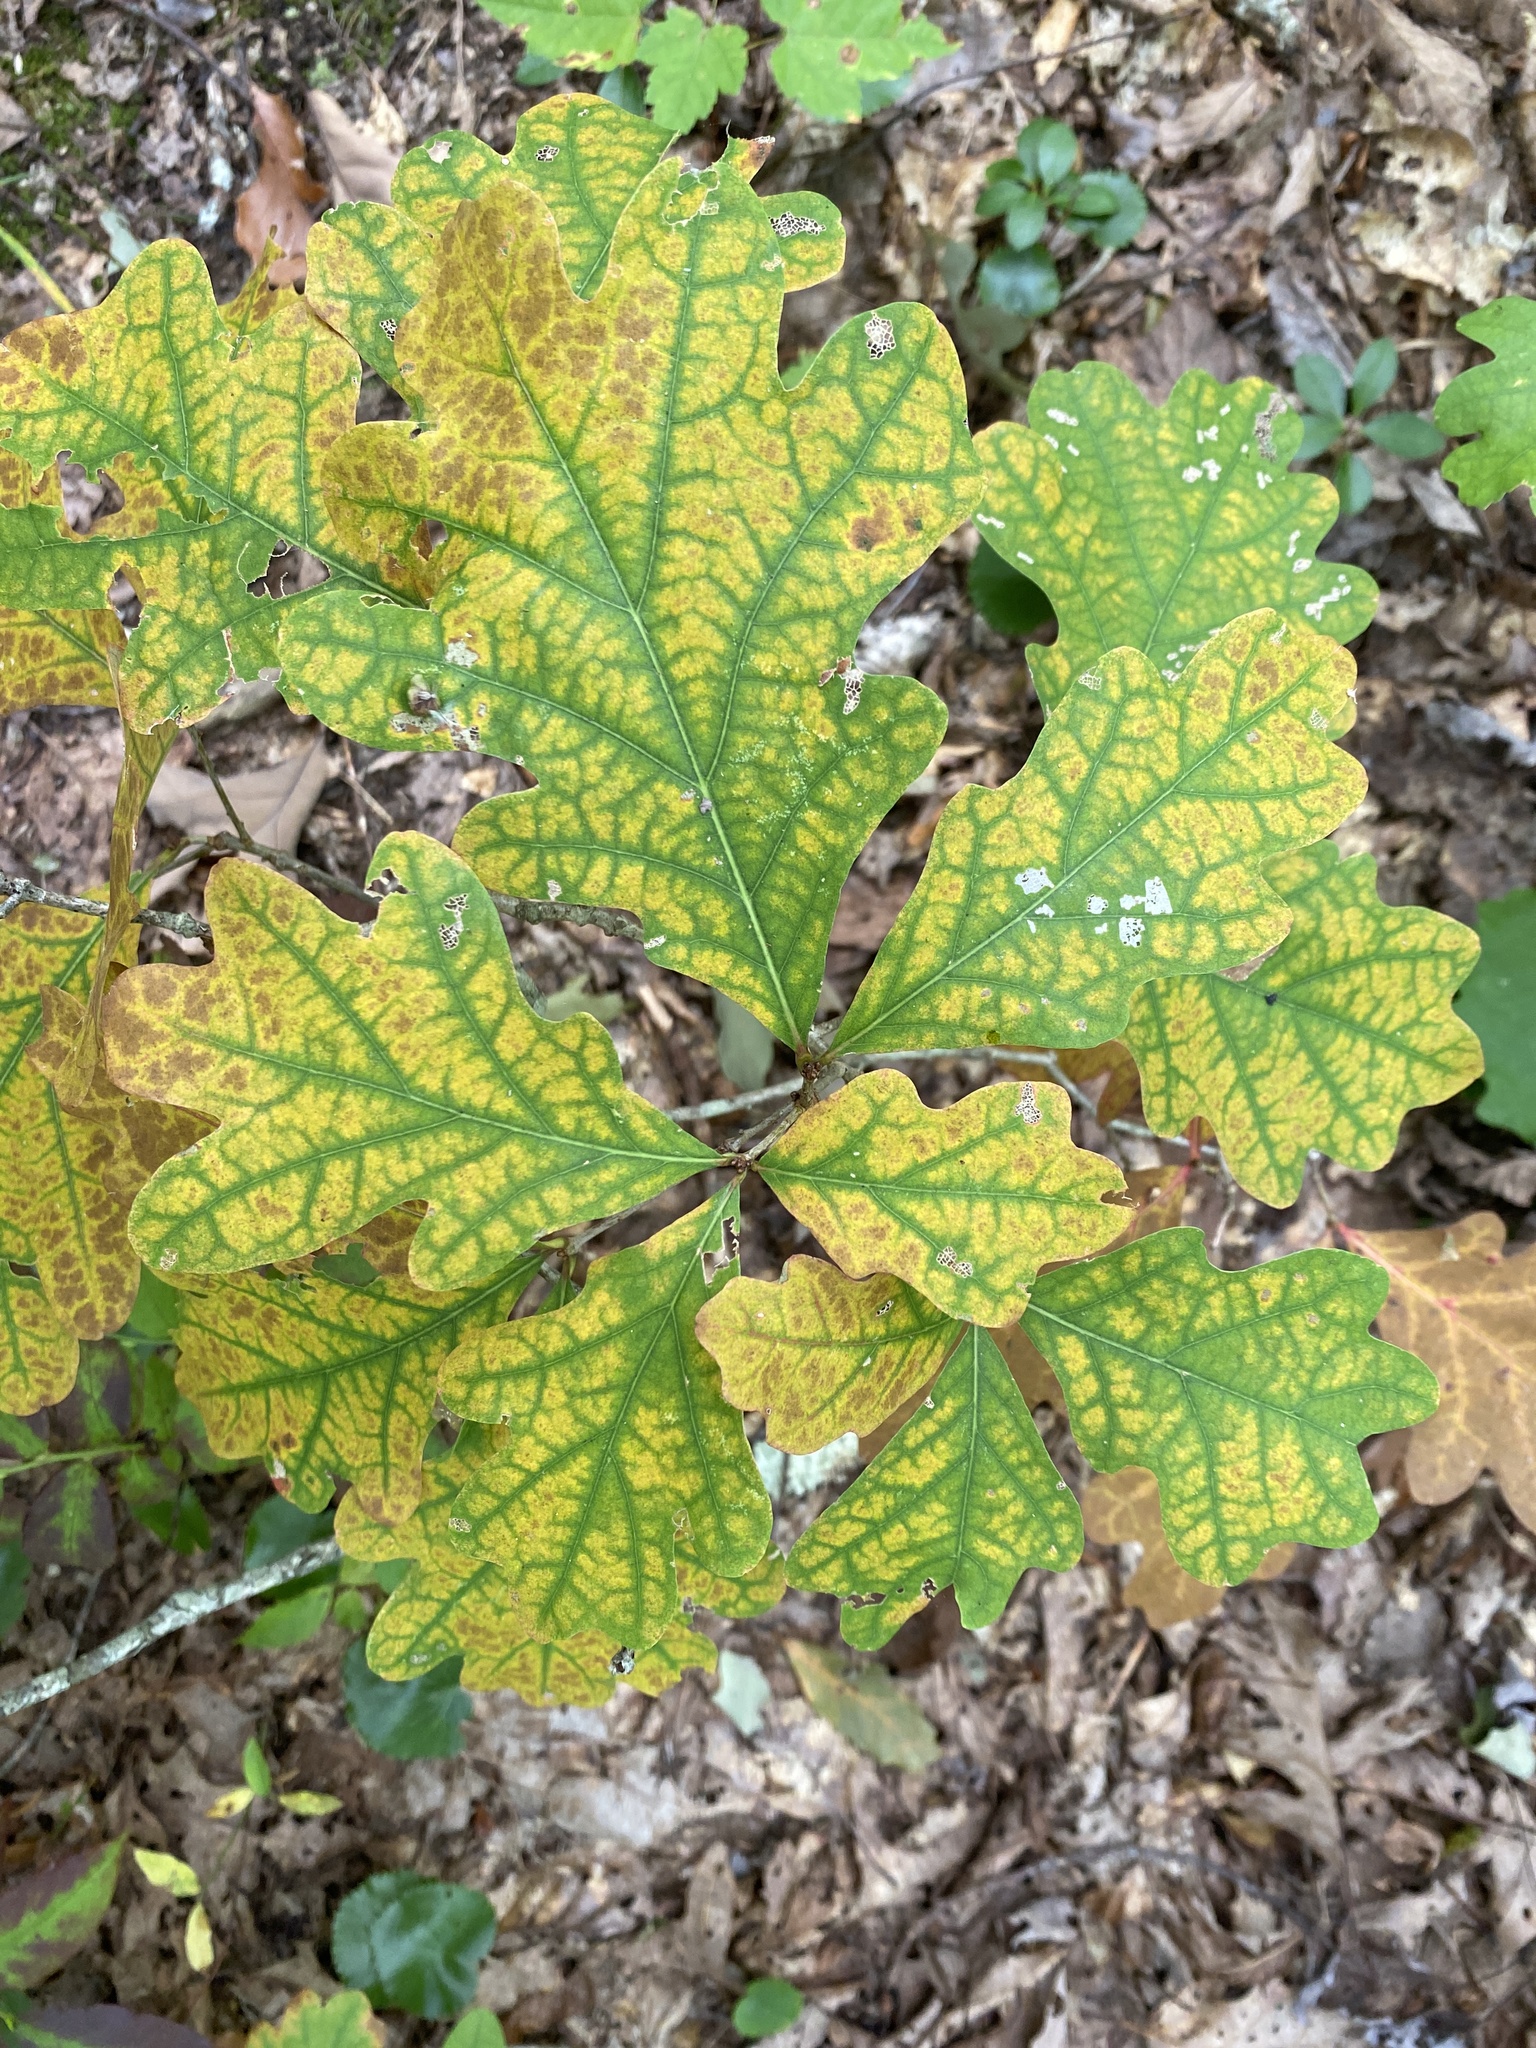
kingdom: Plantae
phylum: Tracheophyta
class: Magnoliopsida
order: Fagales
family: Fagaceae
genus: Quercus
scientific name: Quercus alba
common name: White oak
